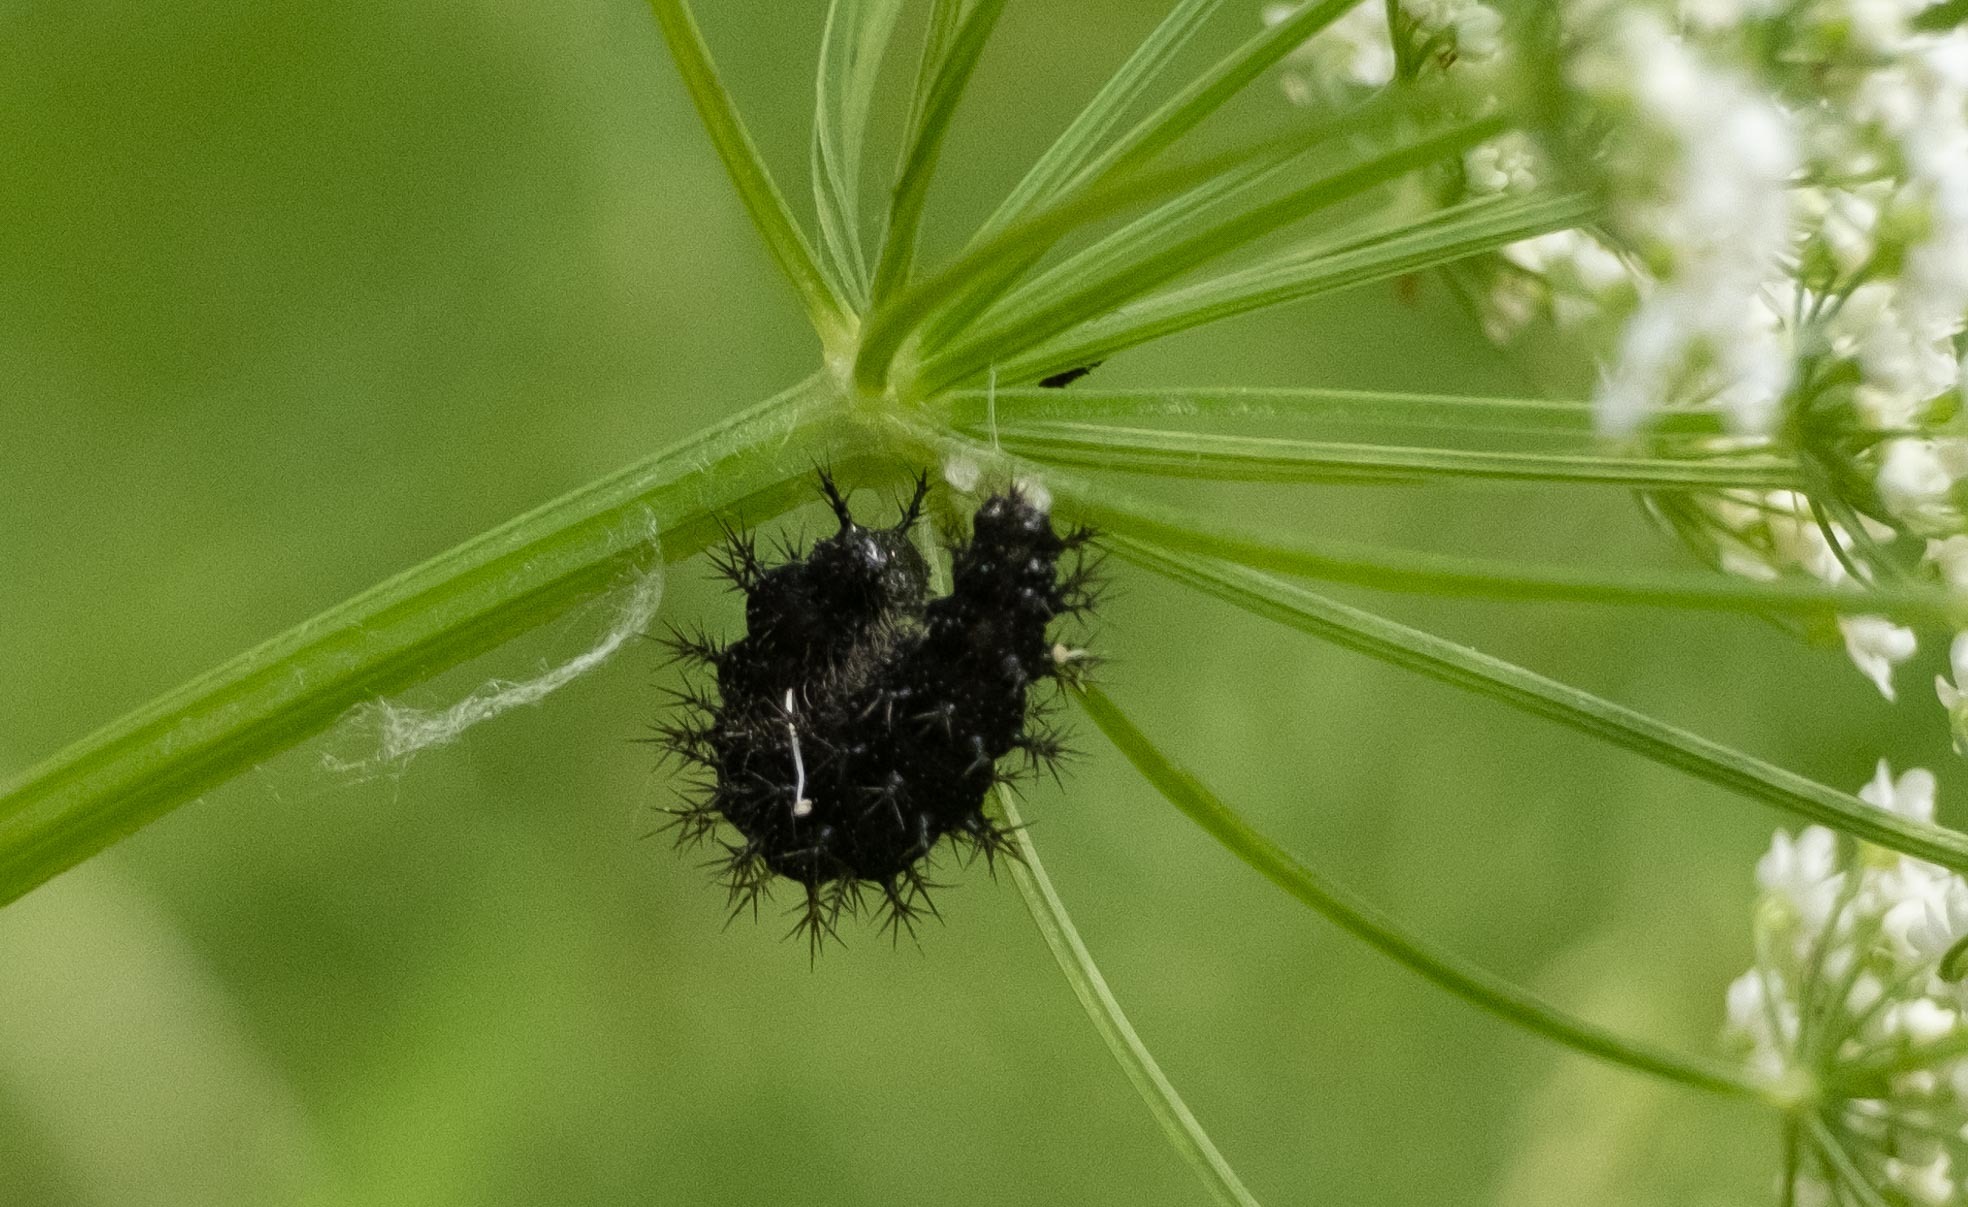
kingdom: Animalia
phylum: Arthropoda
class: Insecta
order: Lepidoptera
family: Nymphalidae
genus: Araschnia
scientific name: Araschnia levana
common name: Map butterfly
